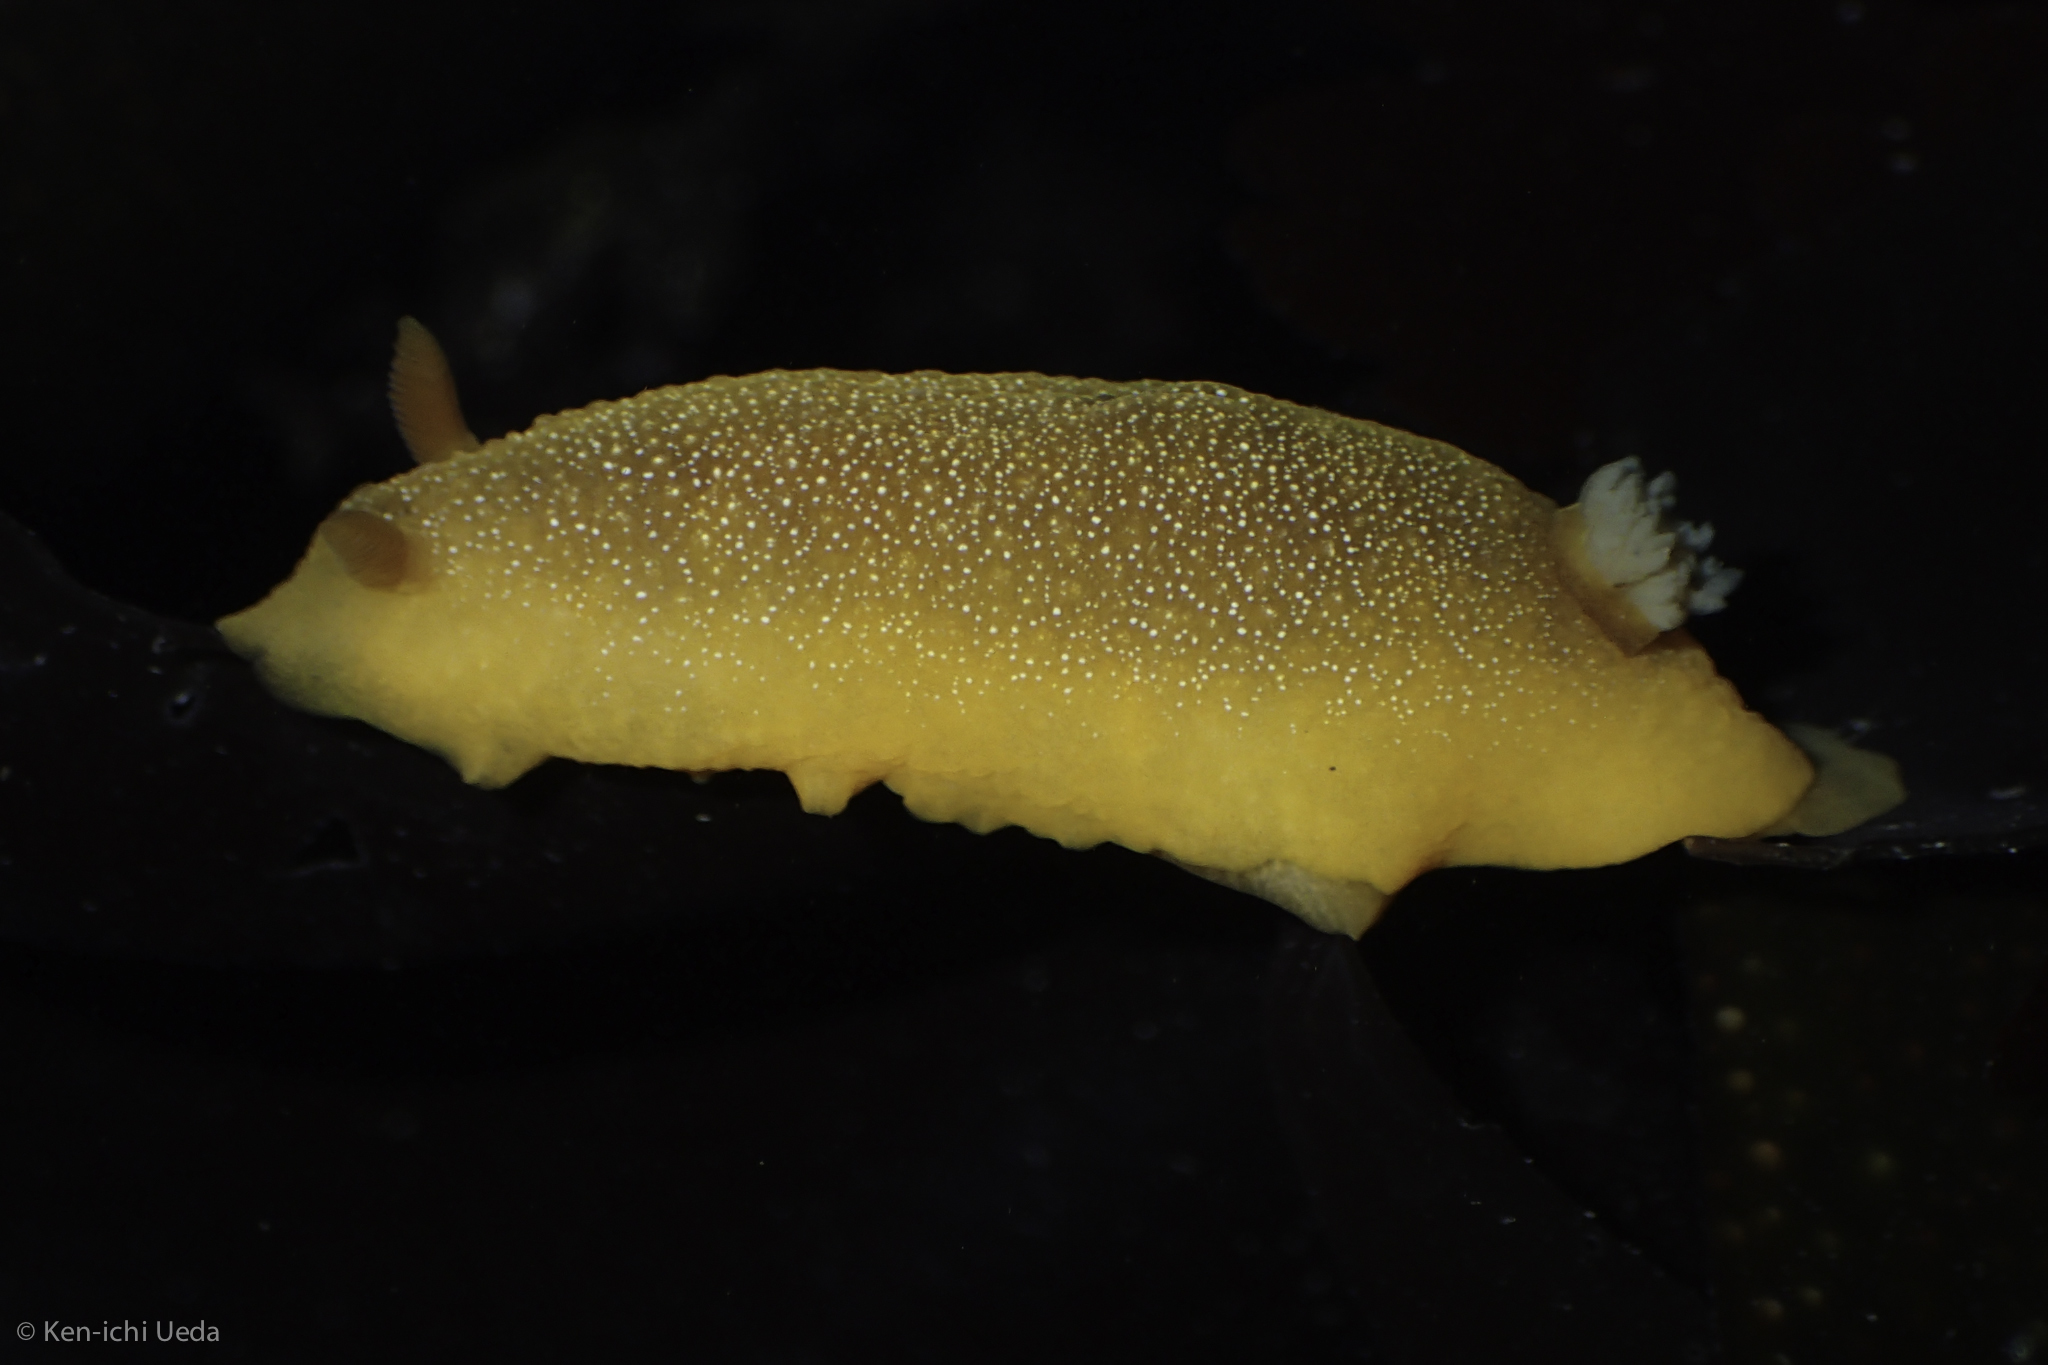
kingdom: Animalia
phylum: Mollusca
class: Gastropoda
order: Nudibranchia
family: Dendrodorididae
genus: Doriopsilla
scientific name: Doriopsilla albopunctata
